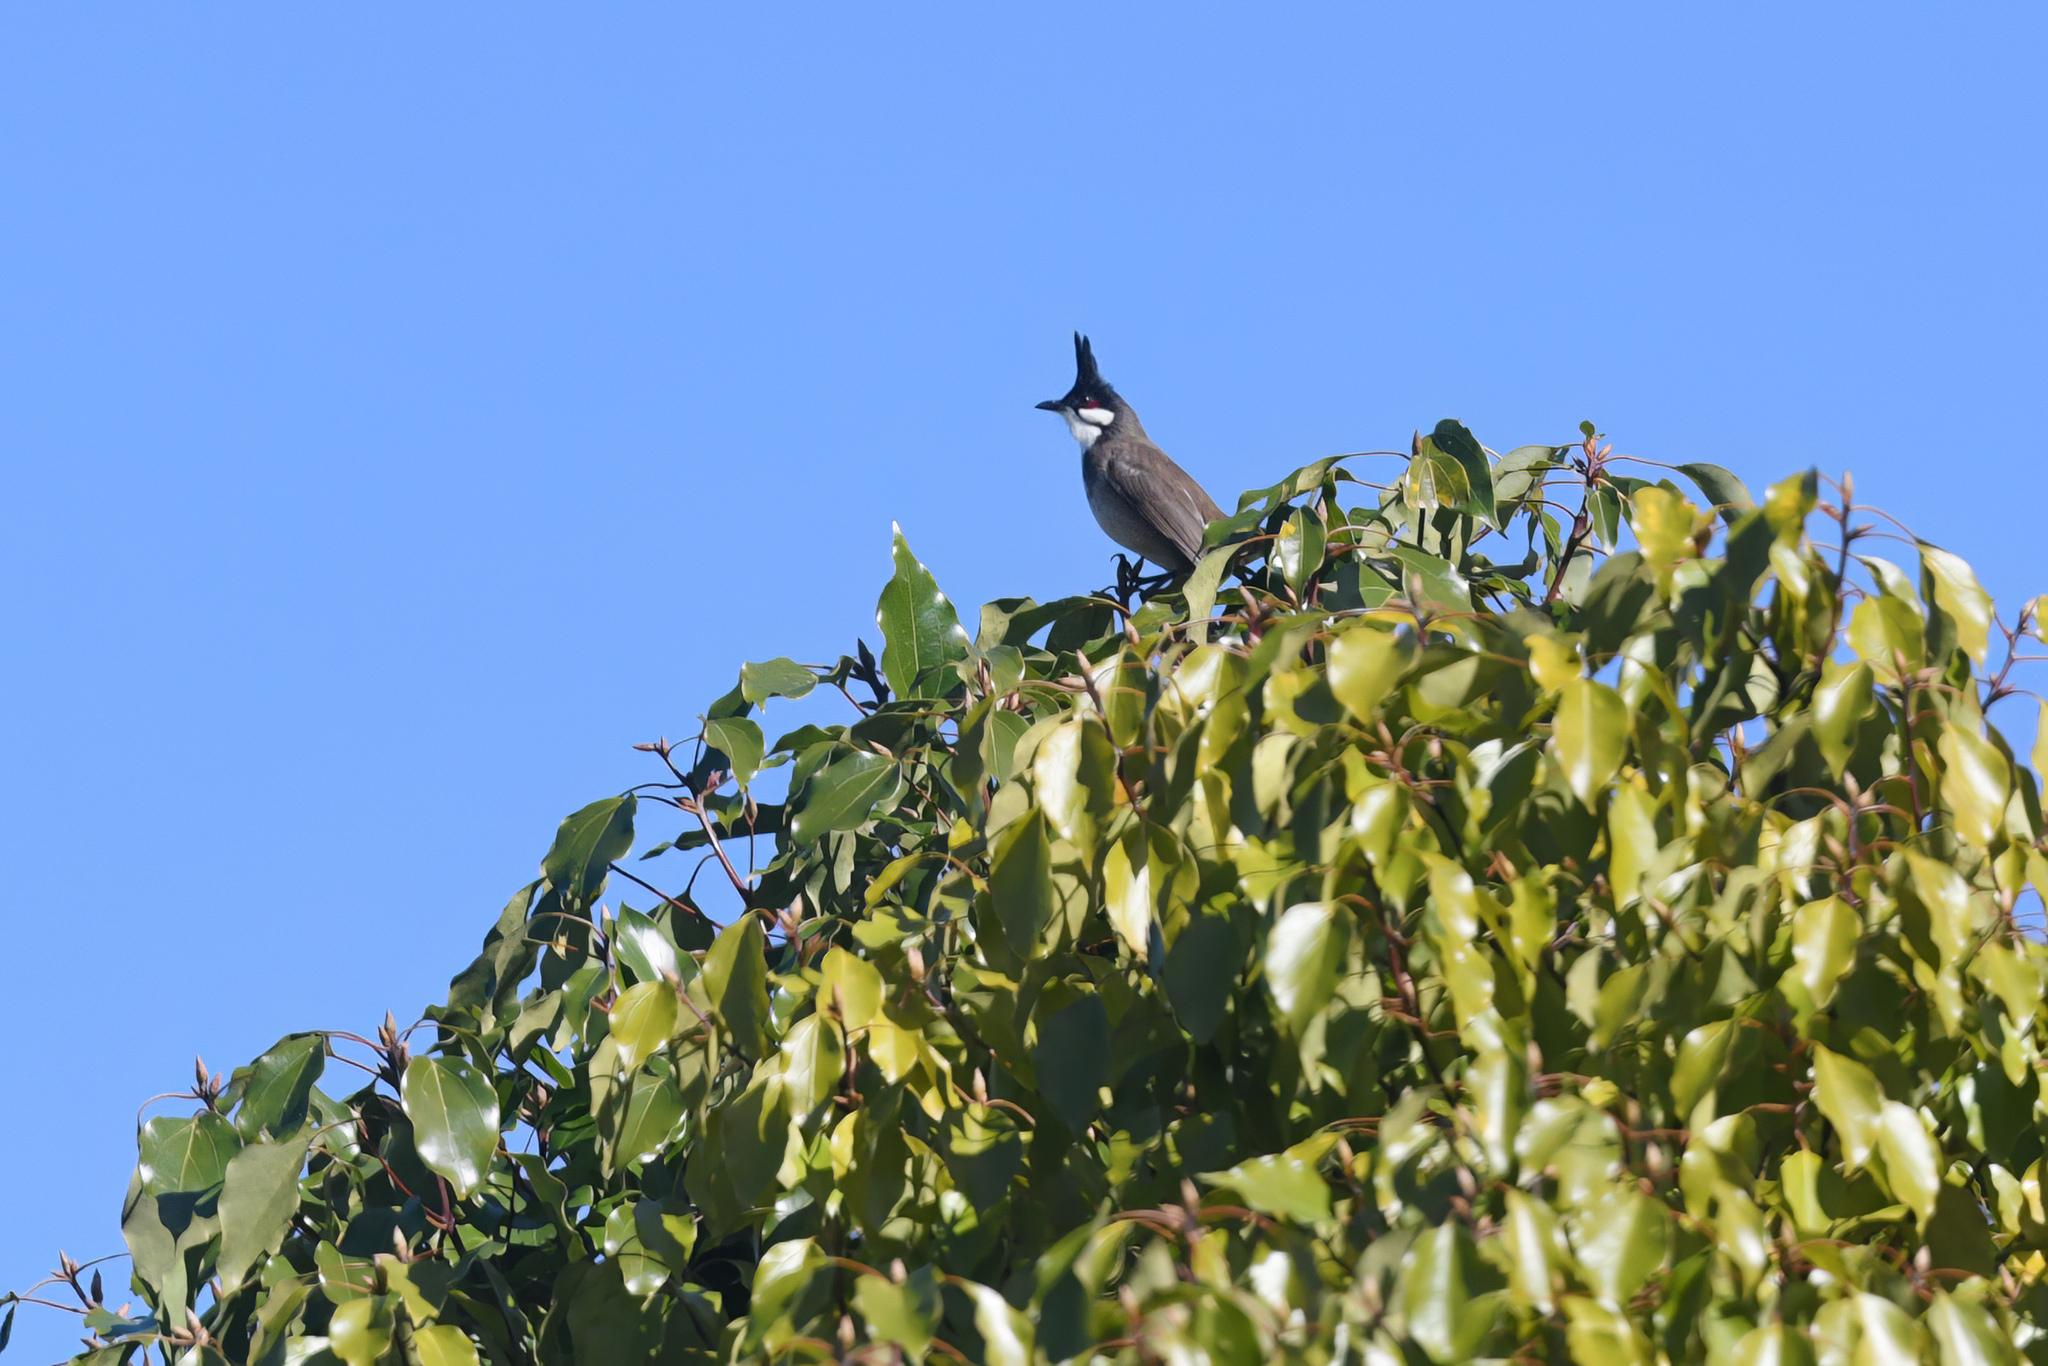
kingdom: Animalia
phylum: Chordata
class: Aves
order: Passeriformes
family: Pycnonotidae
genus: Pycnonotus
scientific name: Pycnonotus jocosus
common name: Red-whiskered bulbul
